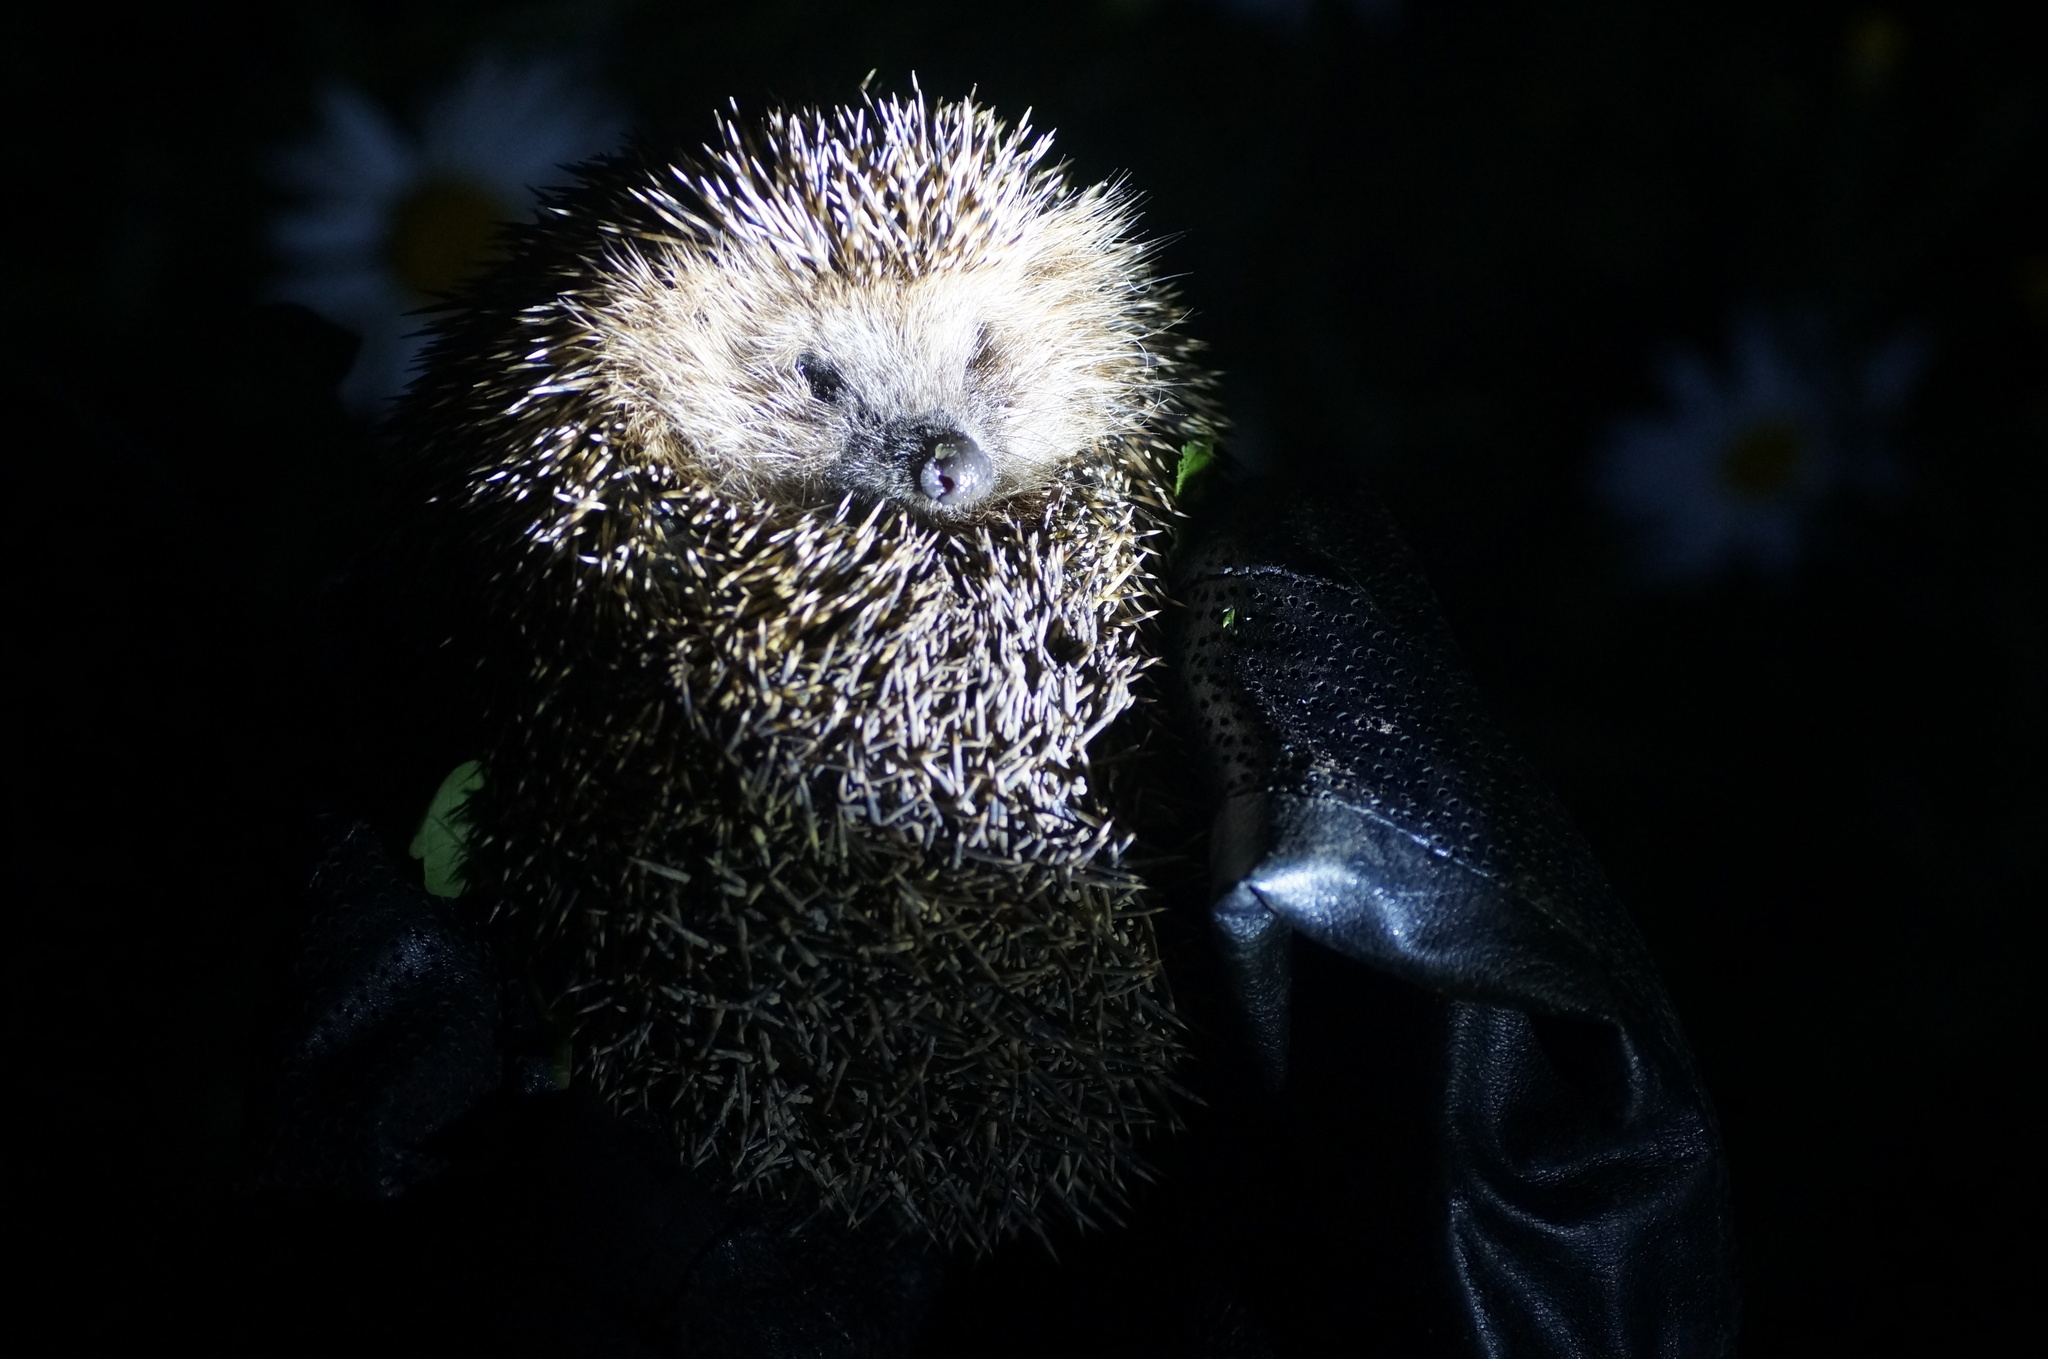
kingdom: Animalia
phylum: Chordata
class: Mammalia
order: Erinaceomorpha
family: Erinaceidae
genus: Erinaceus
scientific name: Erinaceus roumanicus
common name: Northern white-breasted hedgehog
